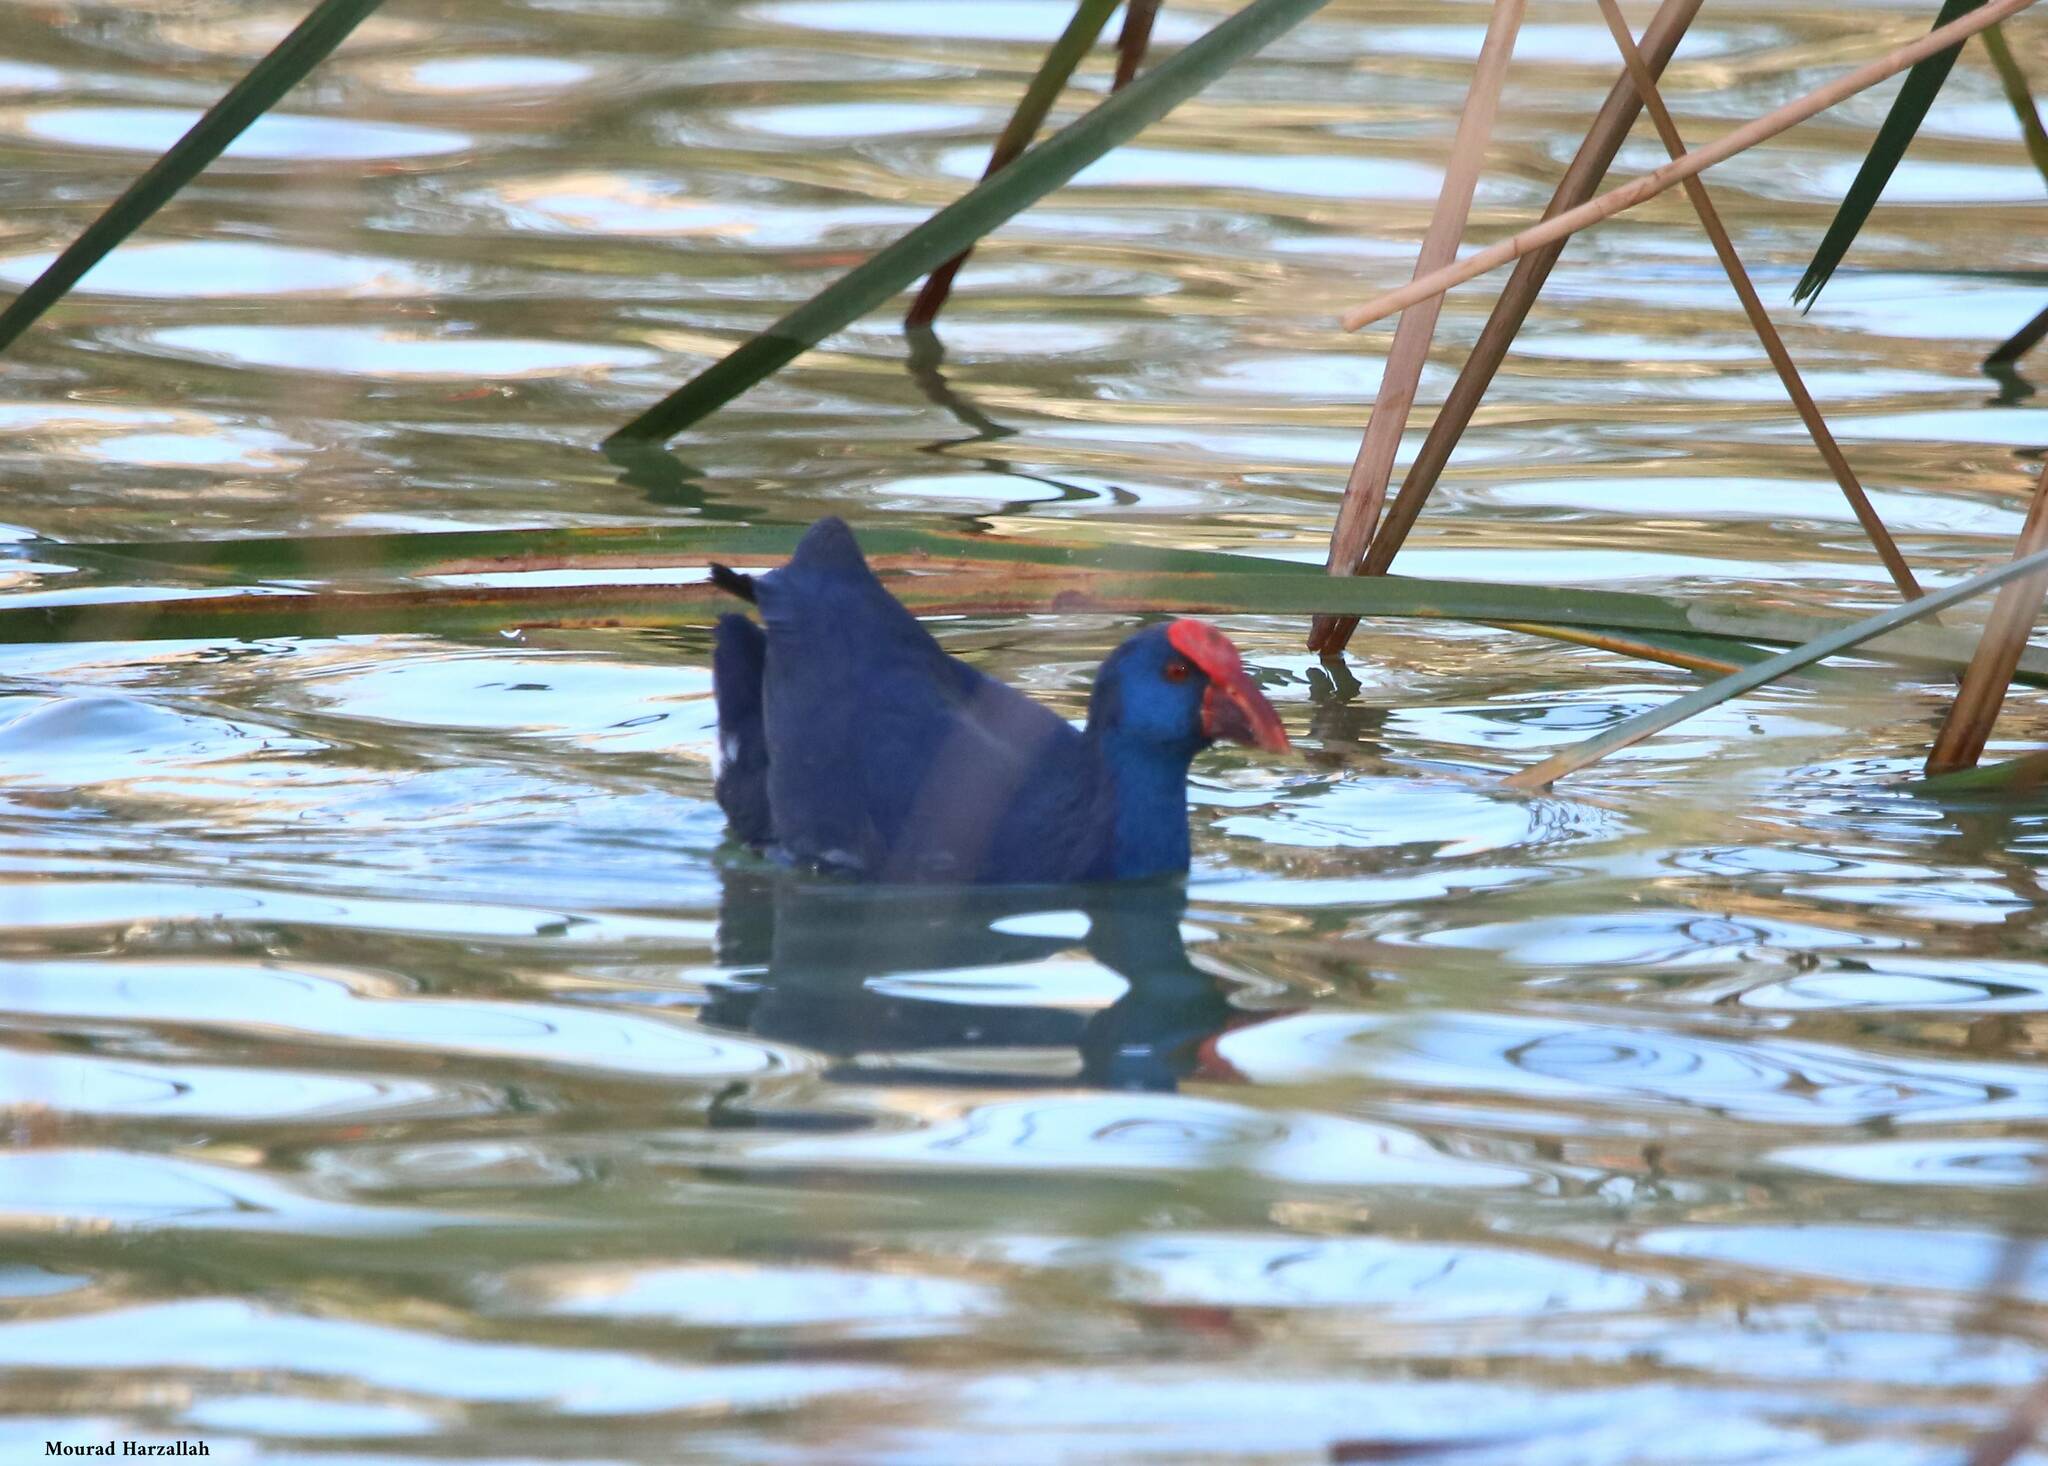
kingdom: Animalia
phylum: Chordata
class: Aves
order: Gruiformes
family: Rallidae
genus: Porphyrio
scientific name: Porphyrio porphyrio
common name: Purple swamphen
